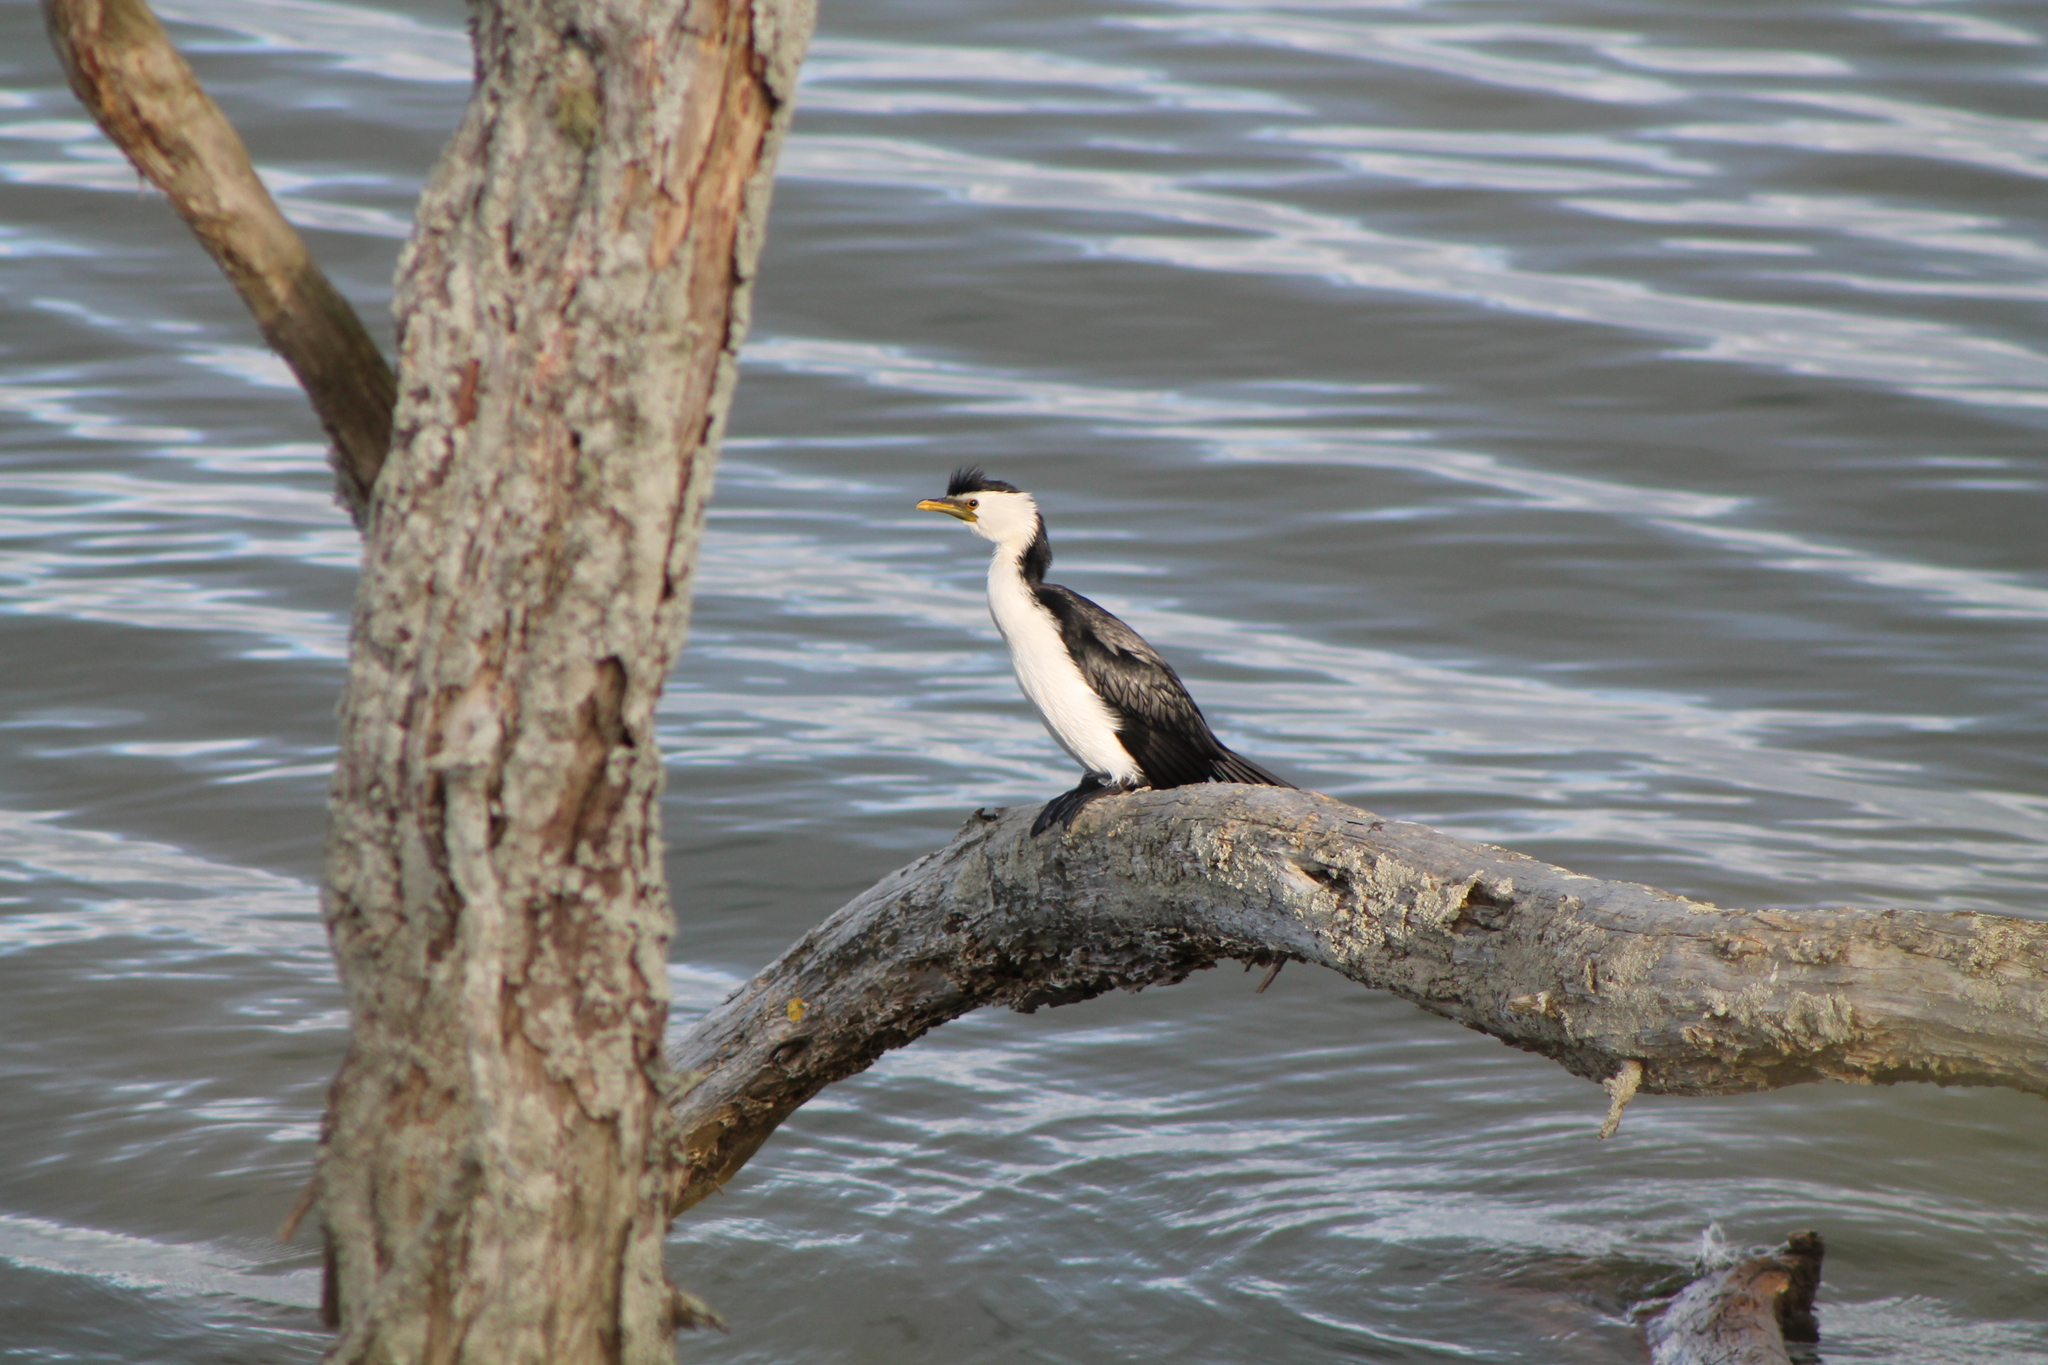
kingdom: Animalia
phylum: Chordata
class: Aves
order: Suliformes
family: Phalacrocoracidae
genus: Microcarbo
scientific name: Microcarbo melanoleucos
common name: Little pied cormorant
